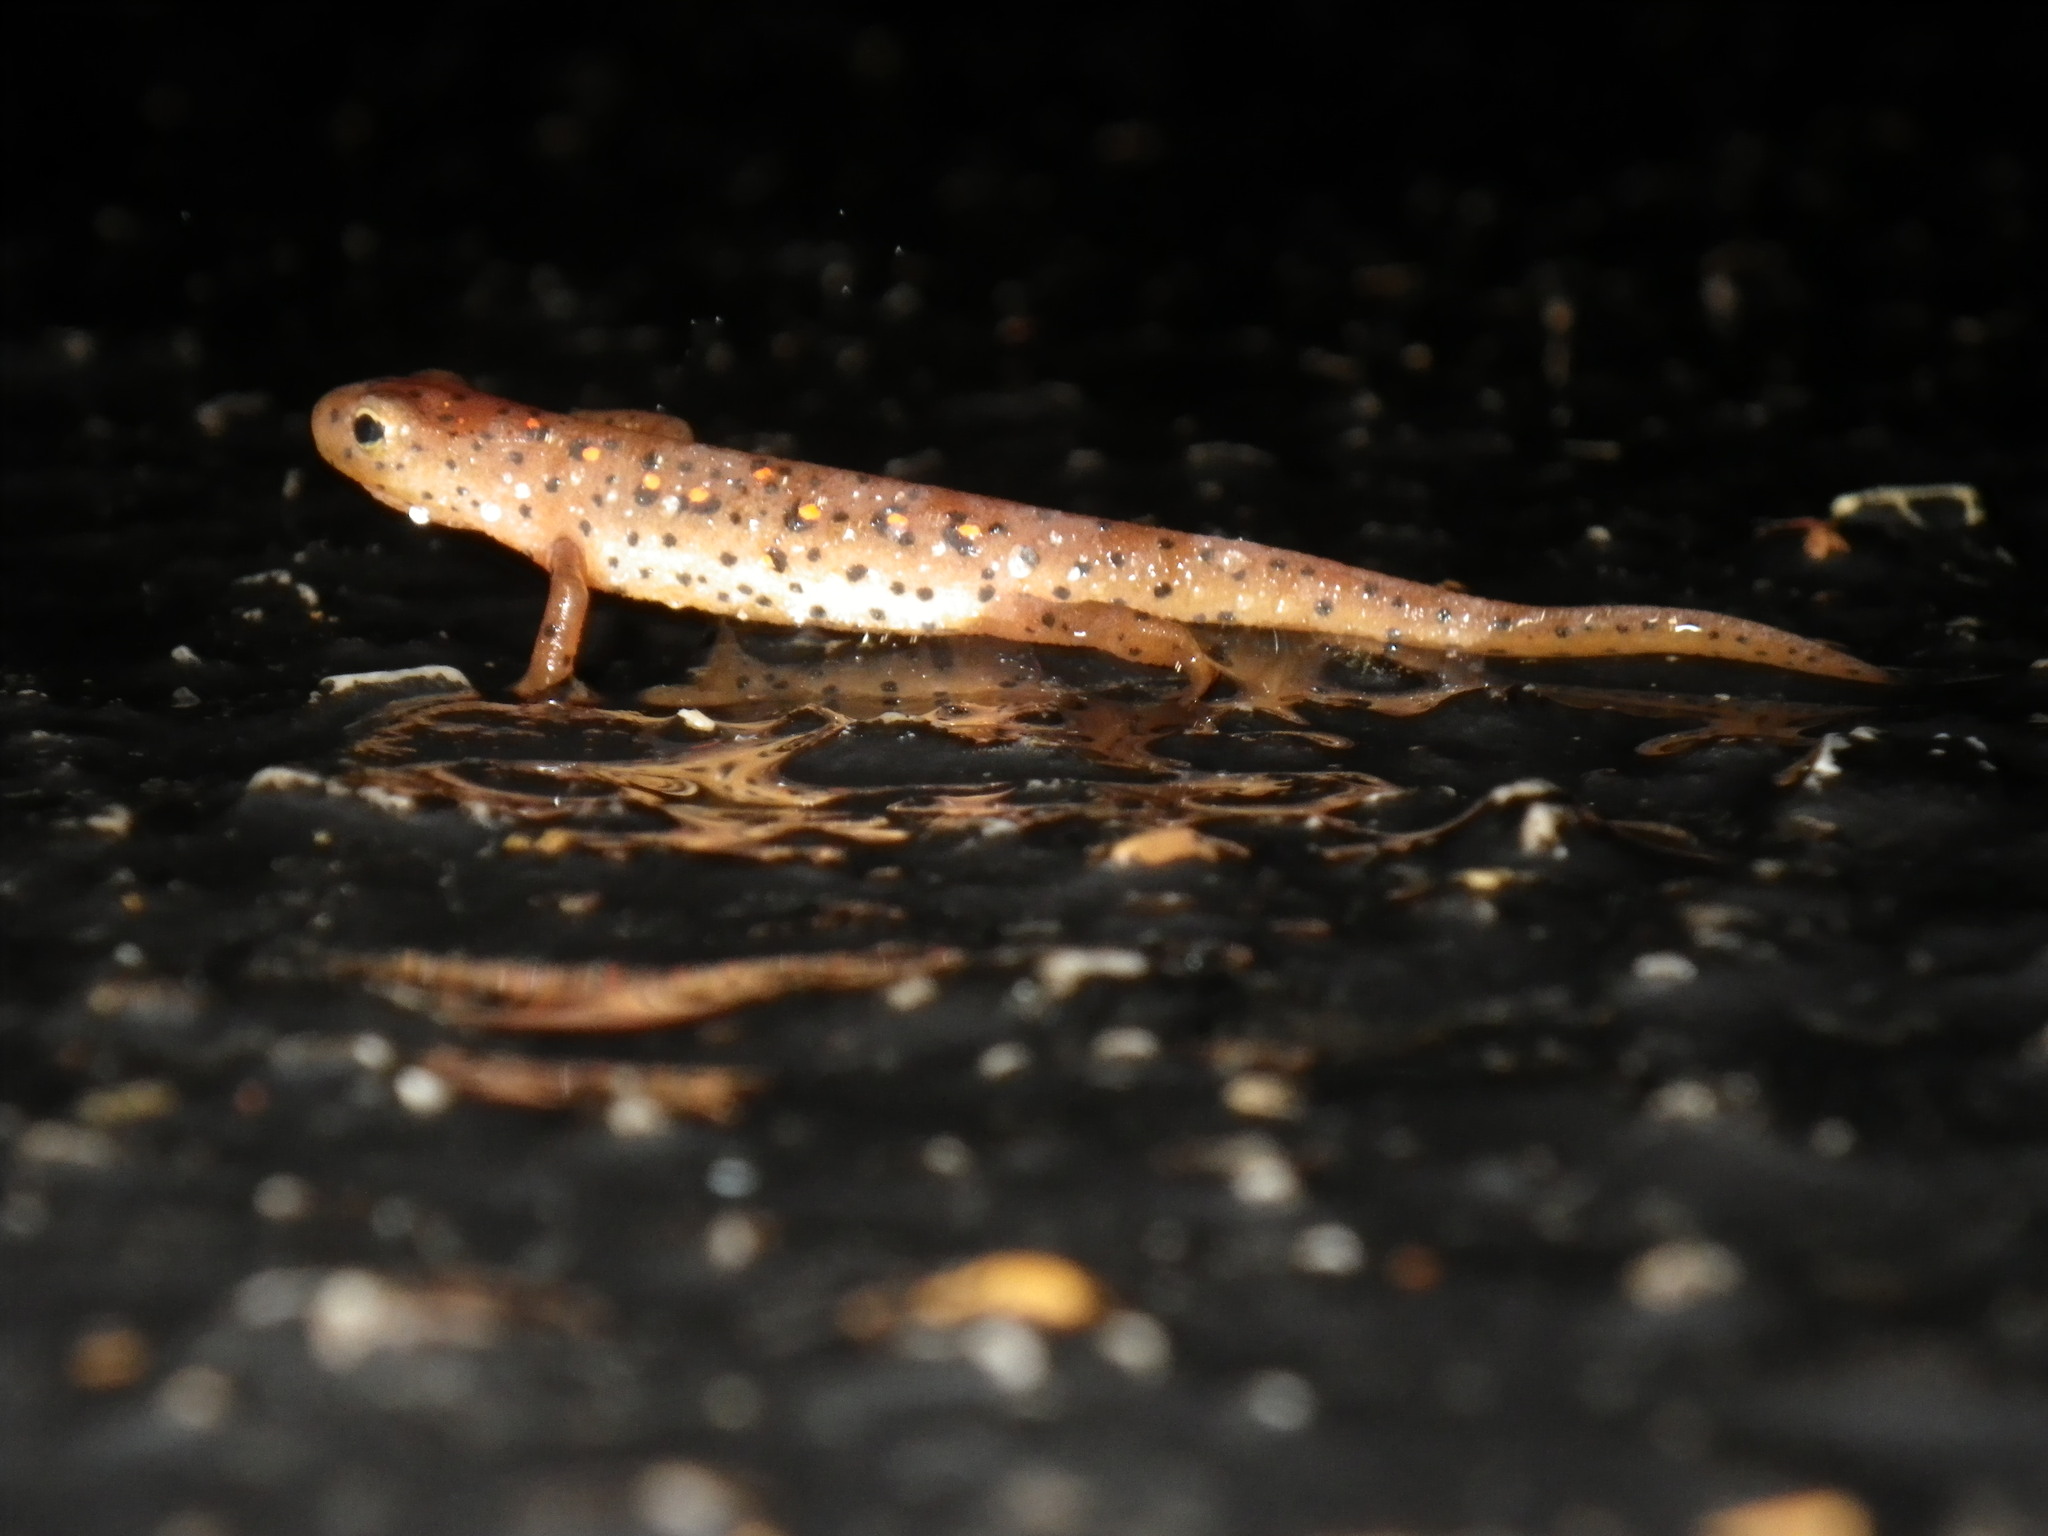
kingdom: Animalia
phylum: Chordata
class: Amphibia
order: Caudata
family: Salamandridae
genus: Notophthalmus
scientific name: Notophthalmus viridescens
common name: Eastern newt
